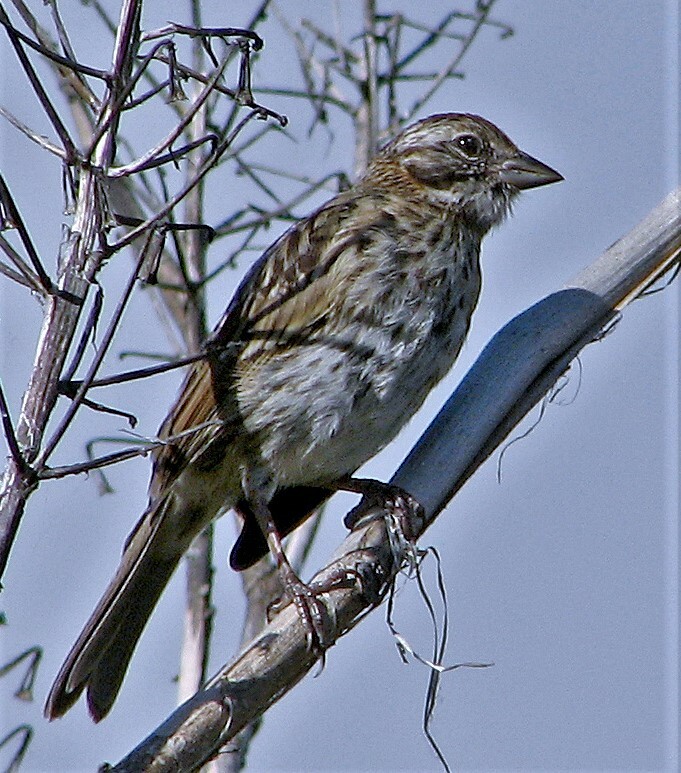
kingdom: Animalia
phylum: Chordata
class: Aves
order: Passeriformes
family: Passerellidae
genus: Zonotrichia
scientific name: Zonotrichia capensis
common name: Rufous-collared sparrow
